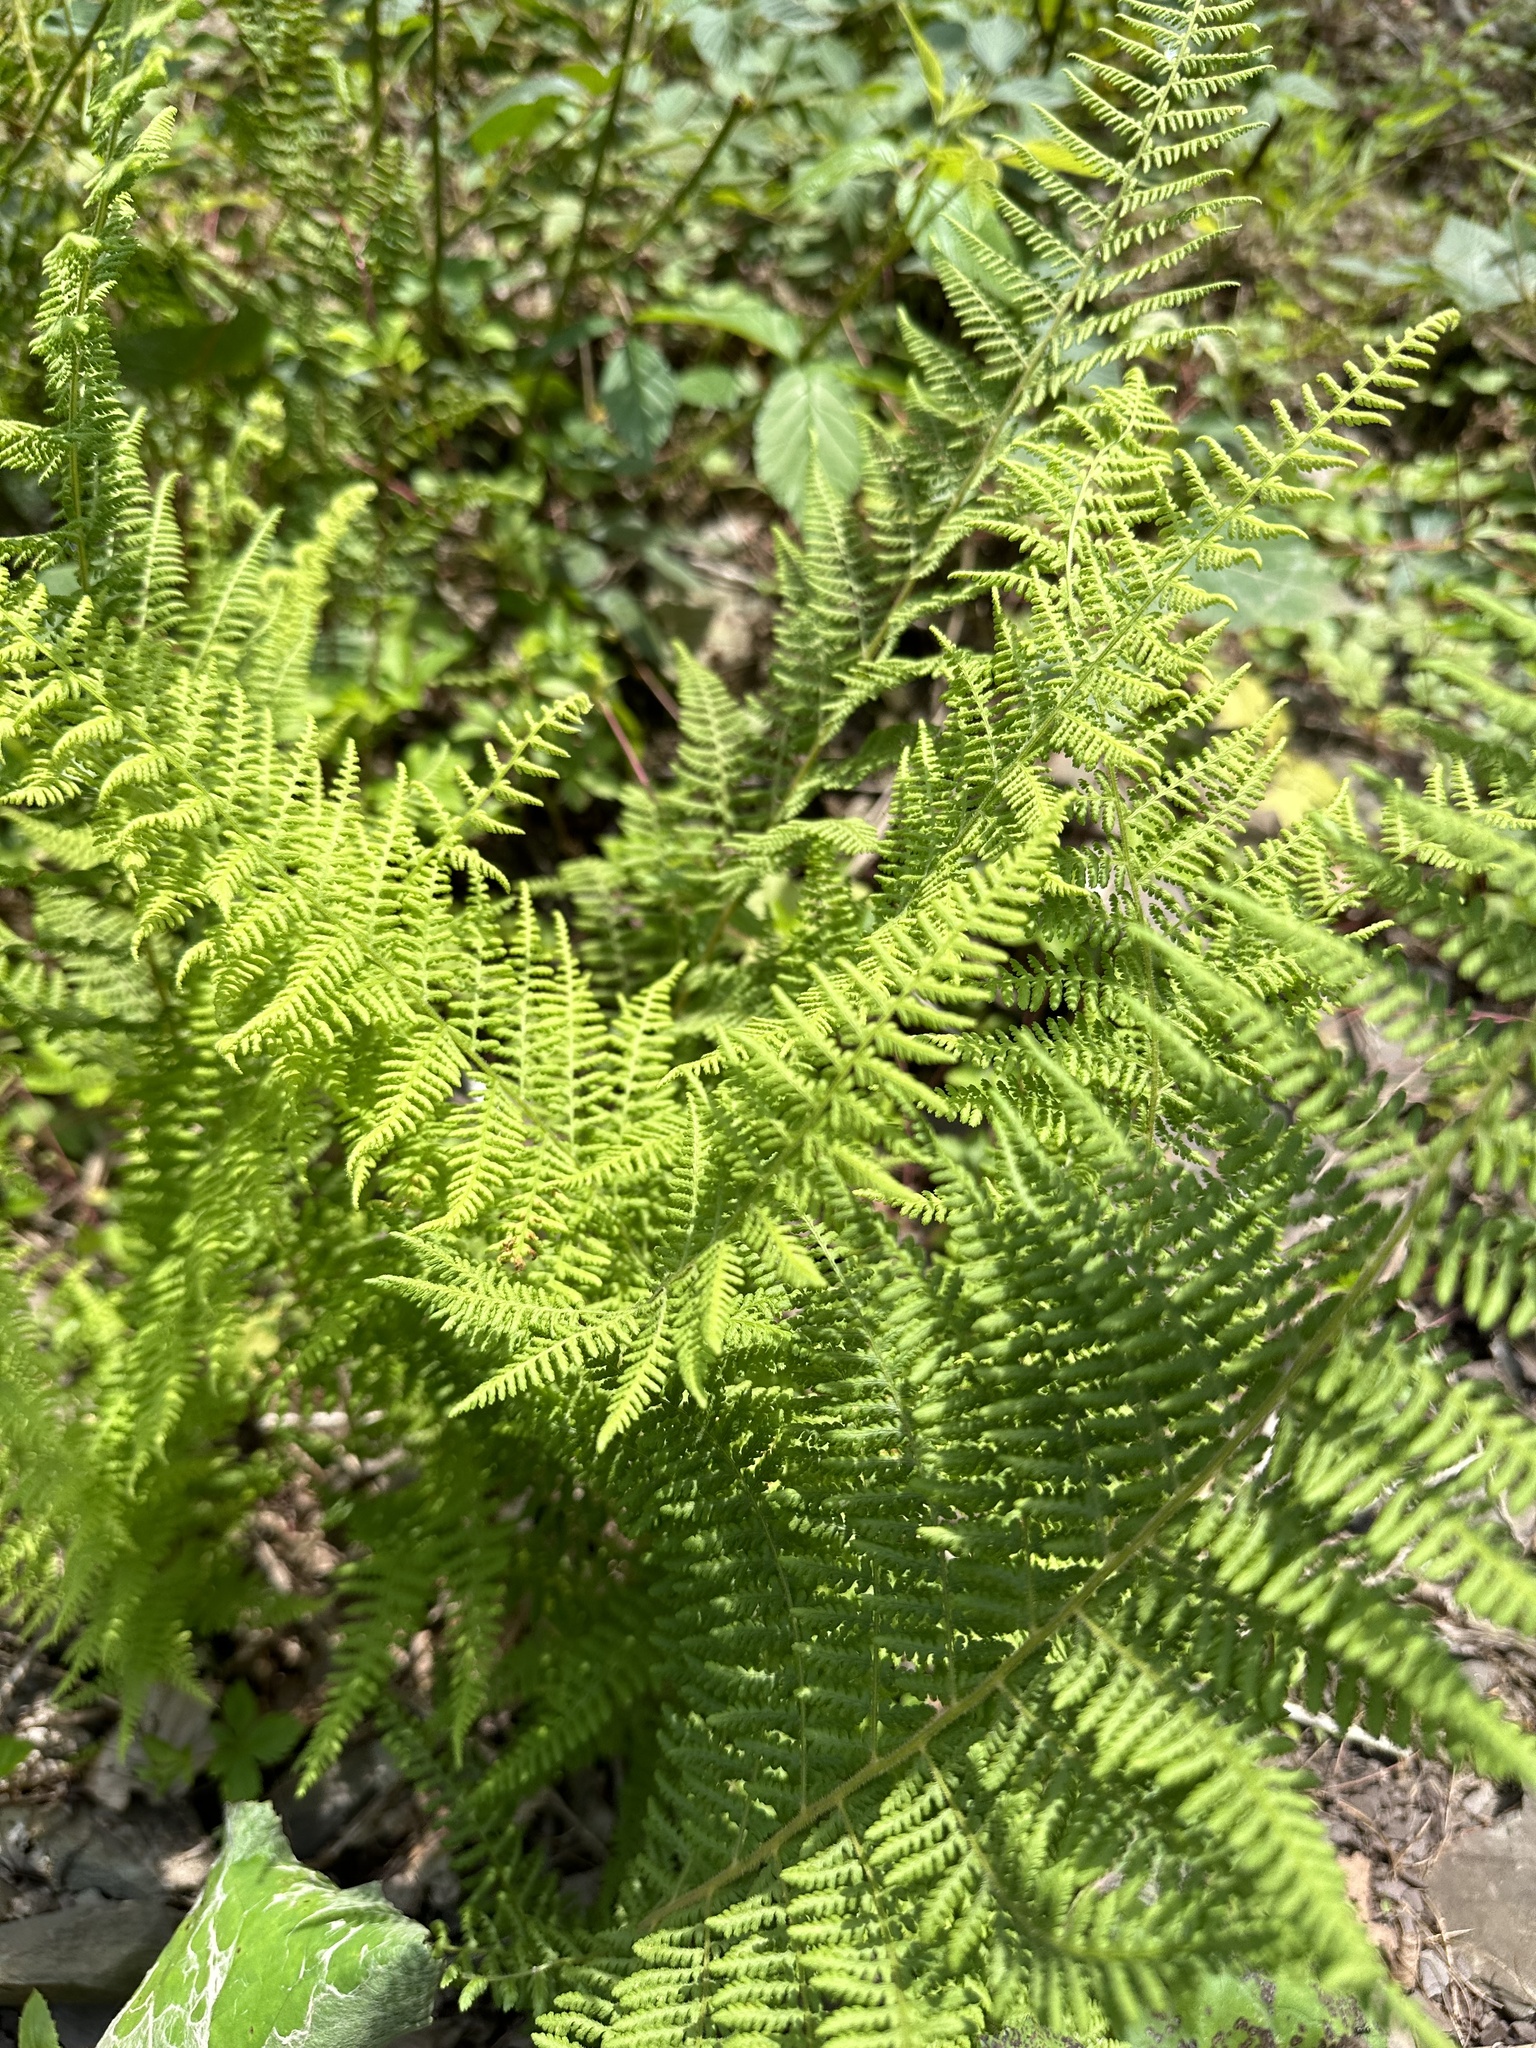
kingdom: Plantae
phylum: Tracheophyta
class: Polypodiopsida
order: Polypodiales
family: Dennstaedtiaceae
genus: Sitobolium
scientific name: Sitobolium punctilobum
